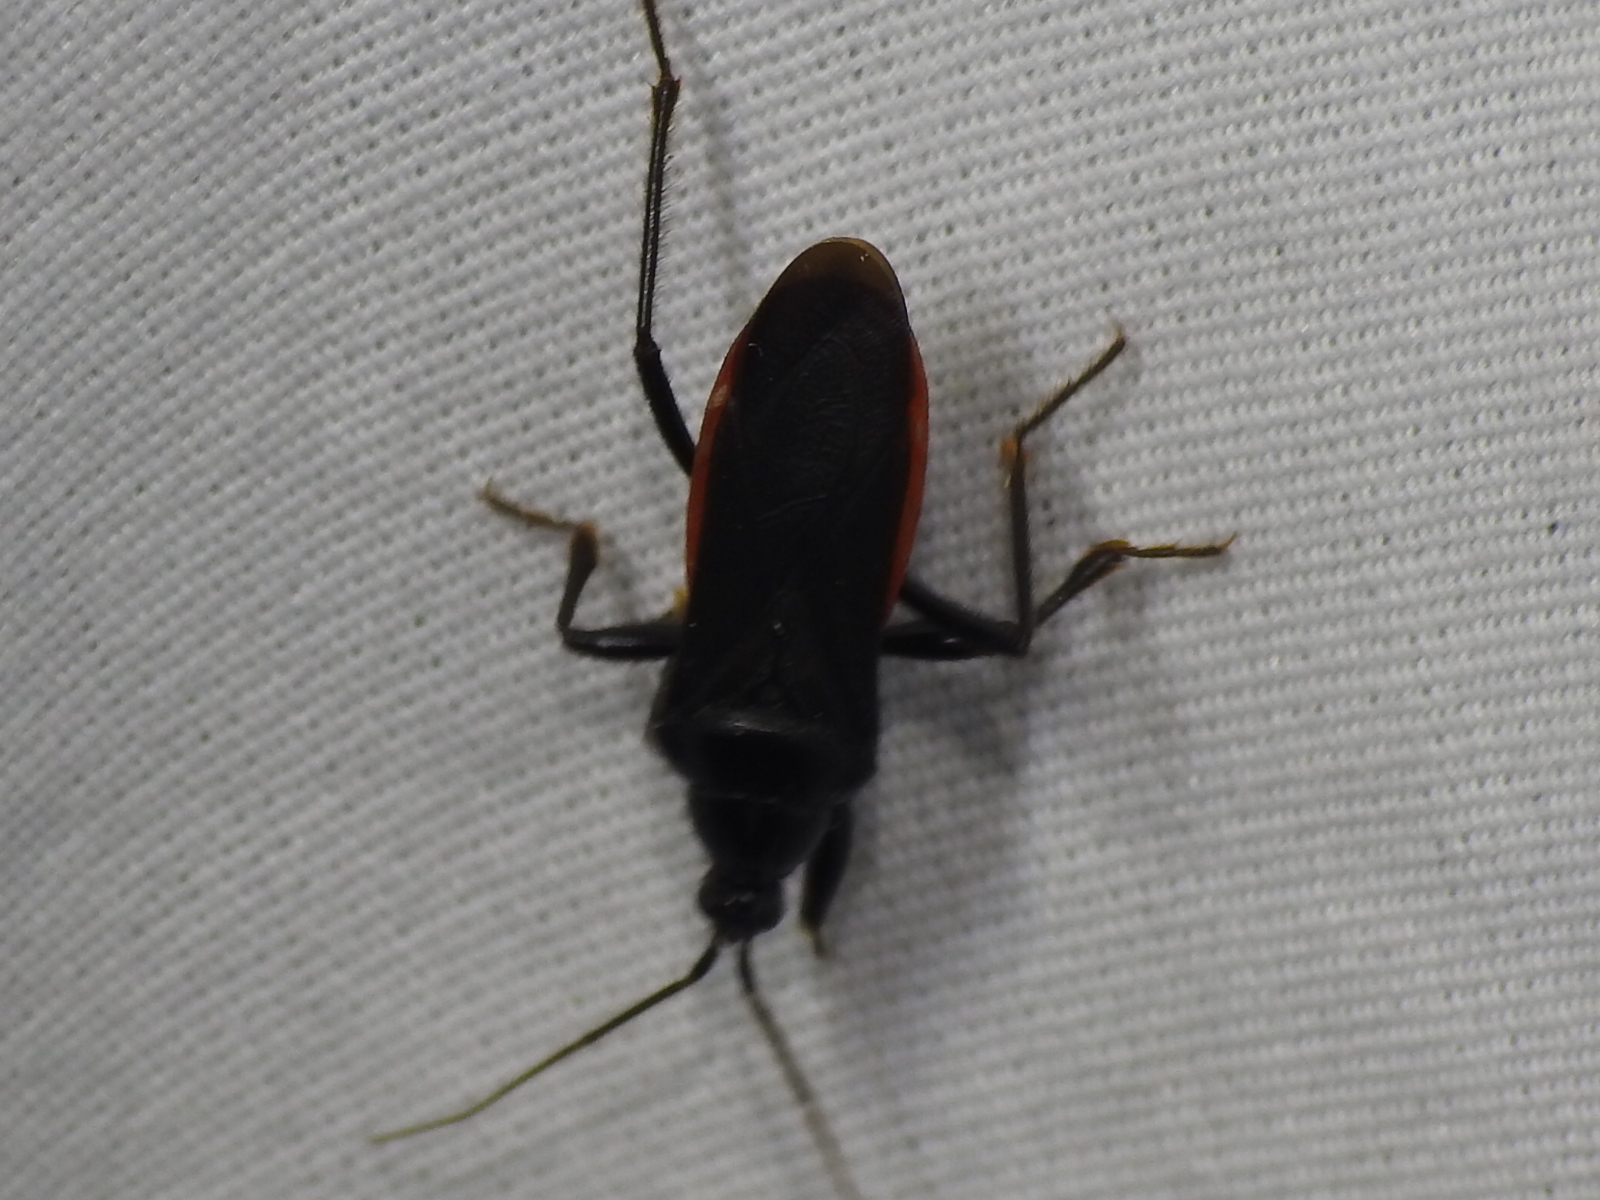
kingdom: Animalia
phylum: Arthropoda
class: Insecta
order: Hemiptera
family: Reduviidae
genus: Melanolestes
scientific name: Melanolestes picipes
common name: Assassin bug
